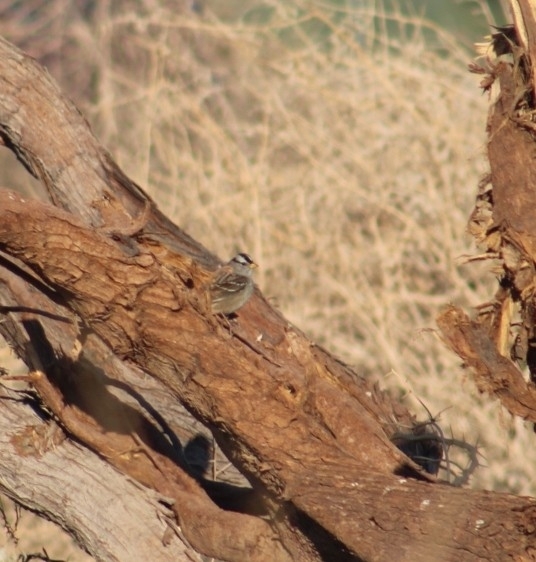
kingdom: Animalia
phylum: Chordata
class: Aves
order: Passeriformes
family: Passerellidae
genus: Zonotrichia
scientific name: Zonotrichia leucophrys
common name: White-crowned sparrow
